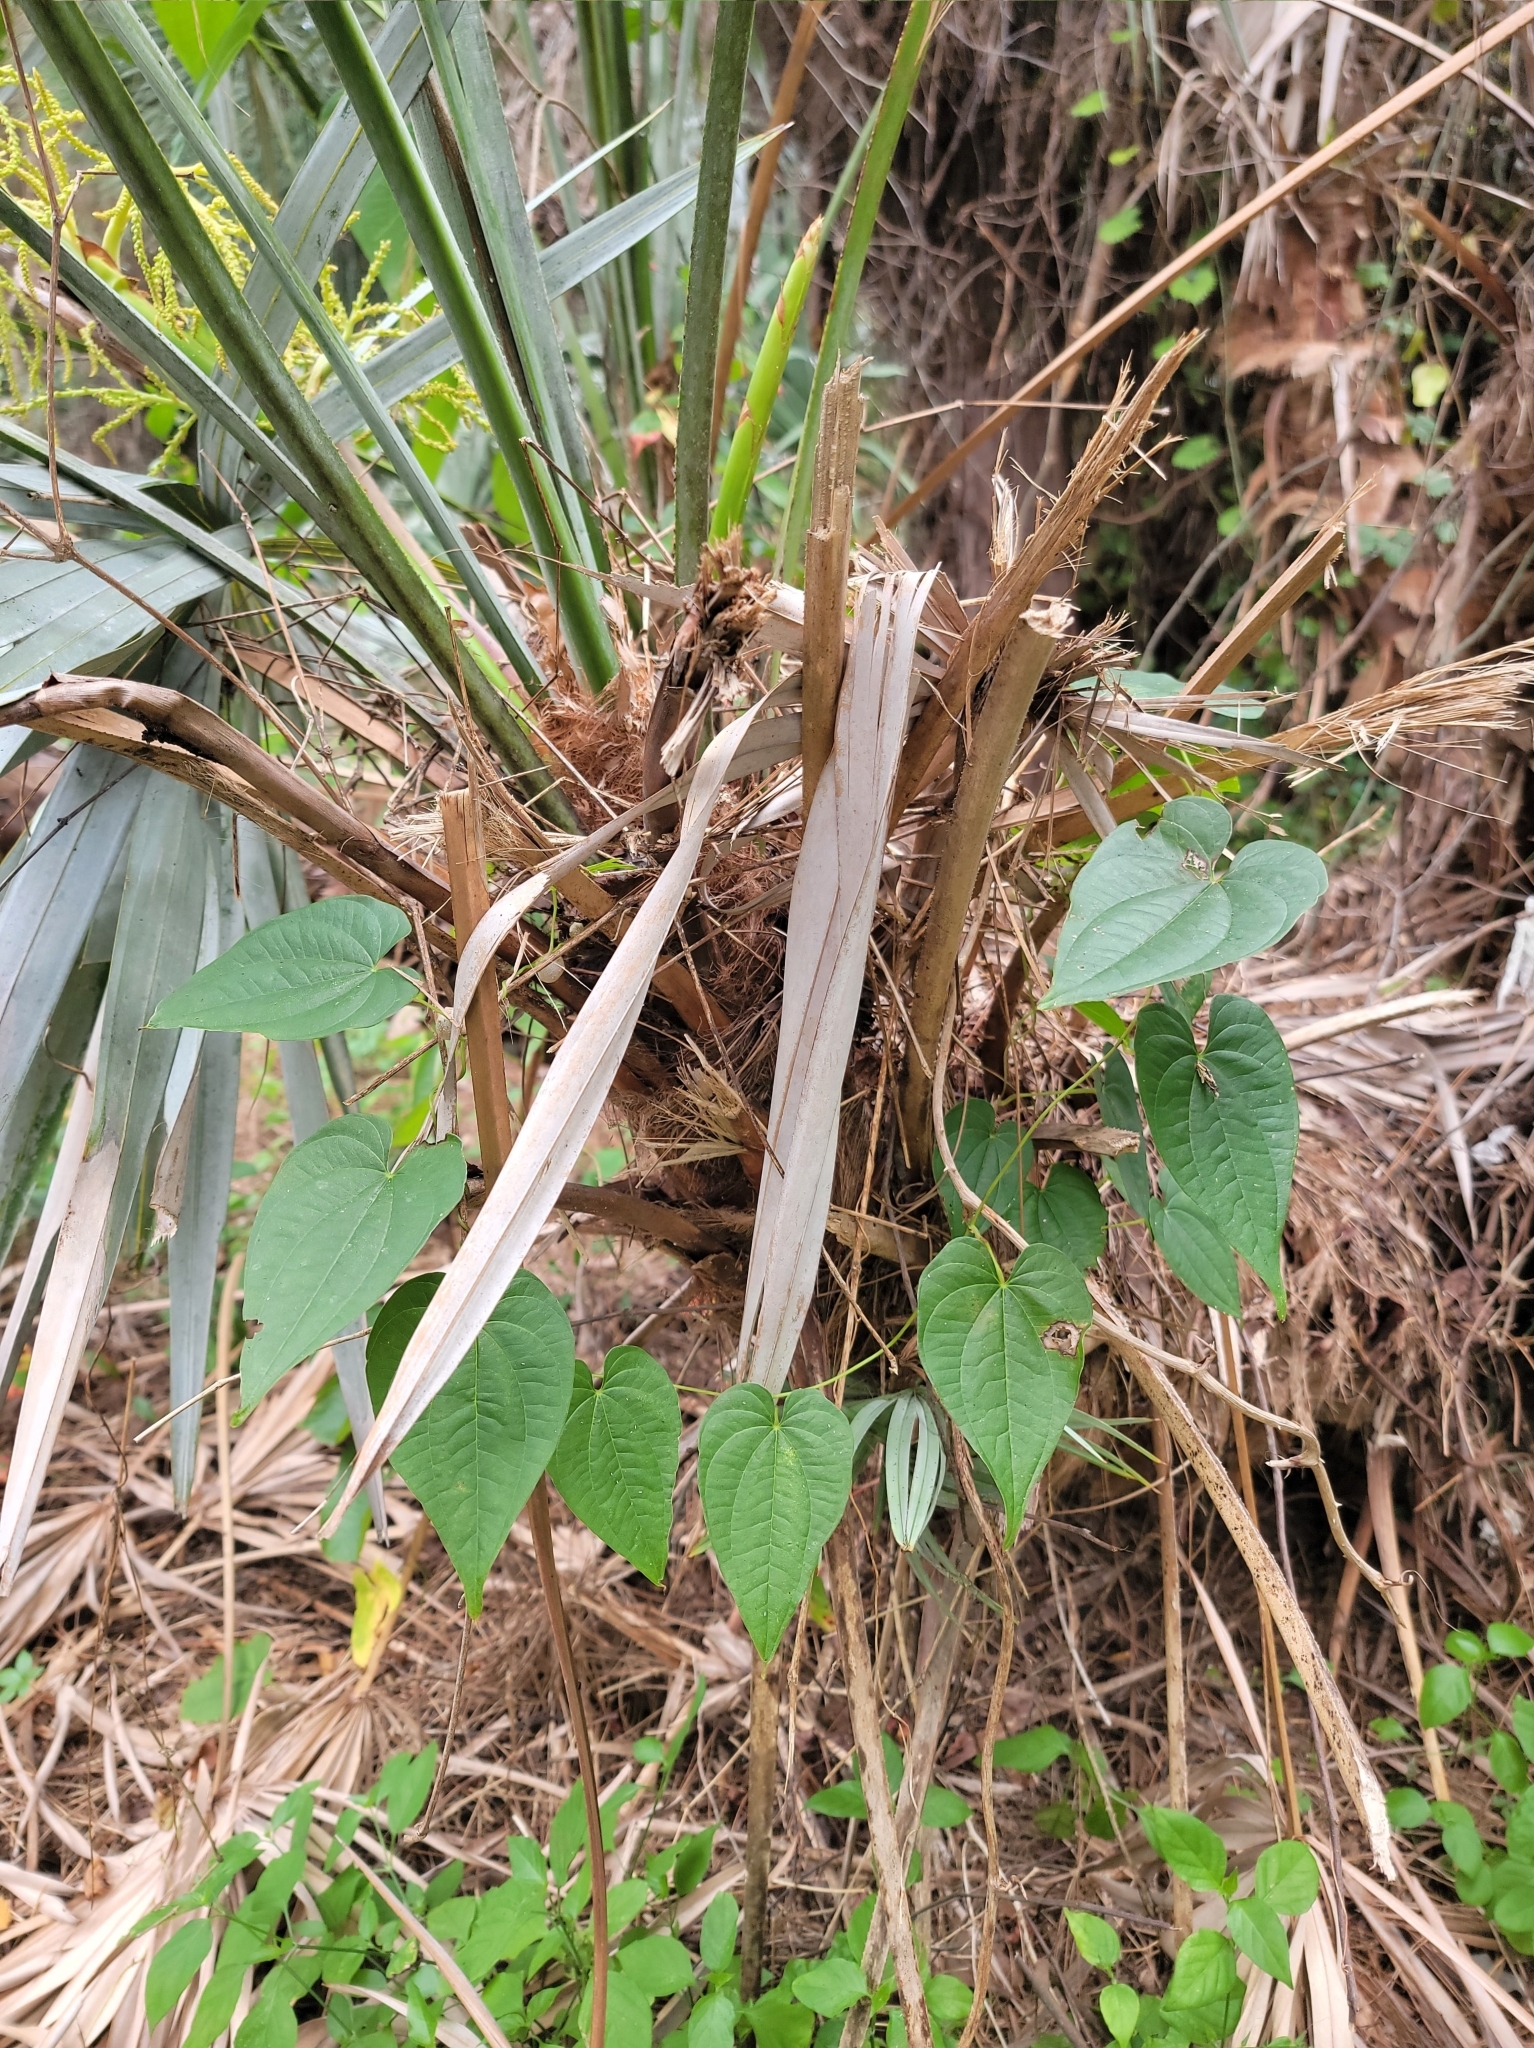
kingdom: Plantae
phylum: Tracheophyta
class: Liliopsida
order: Dioscoreales
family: Dioscoreaceae
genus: Dioscorea
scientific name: Dioscorea bulbifera
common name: Air yam
